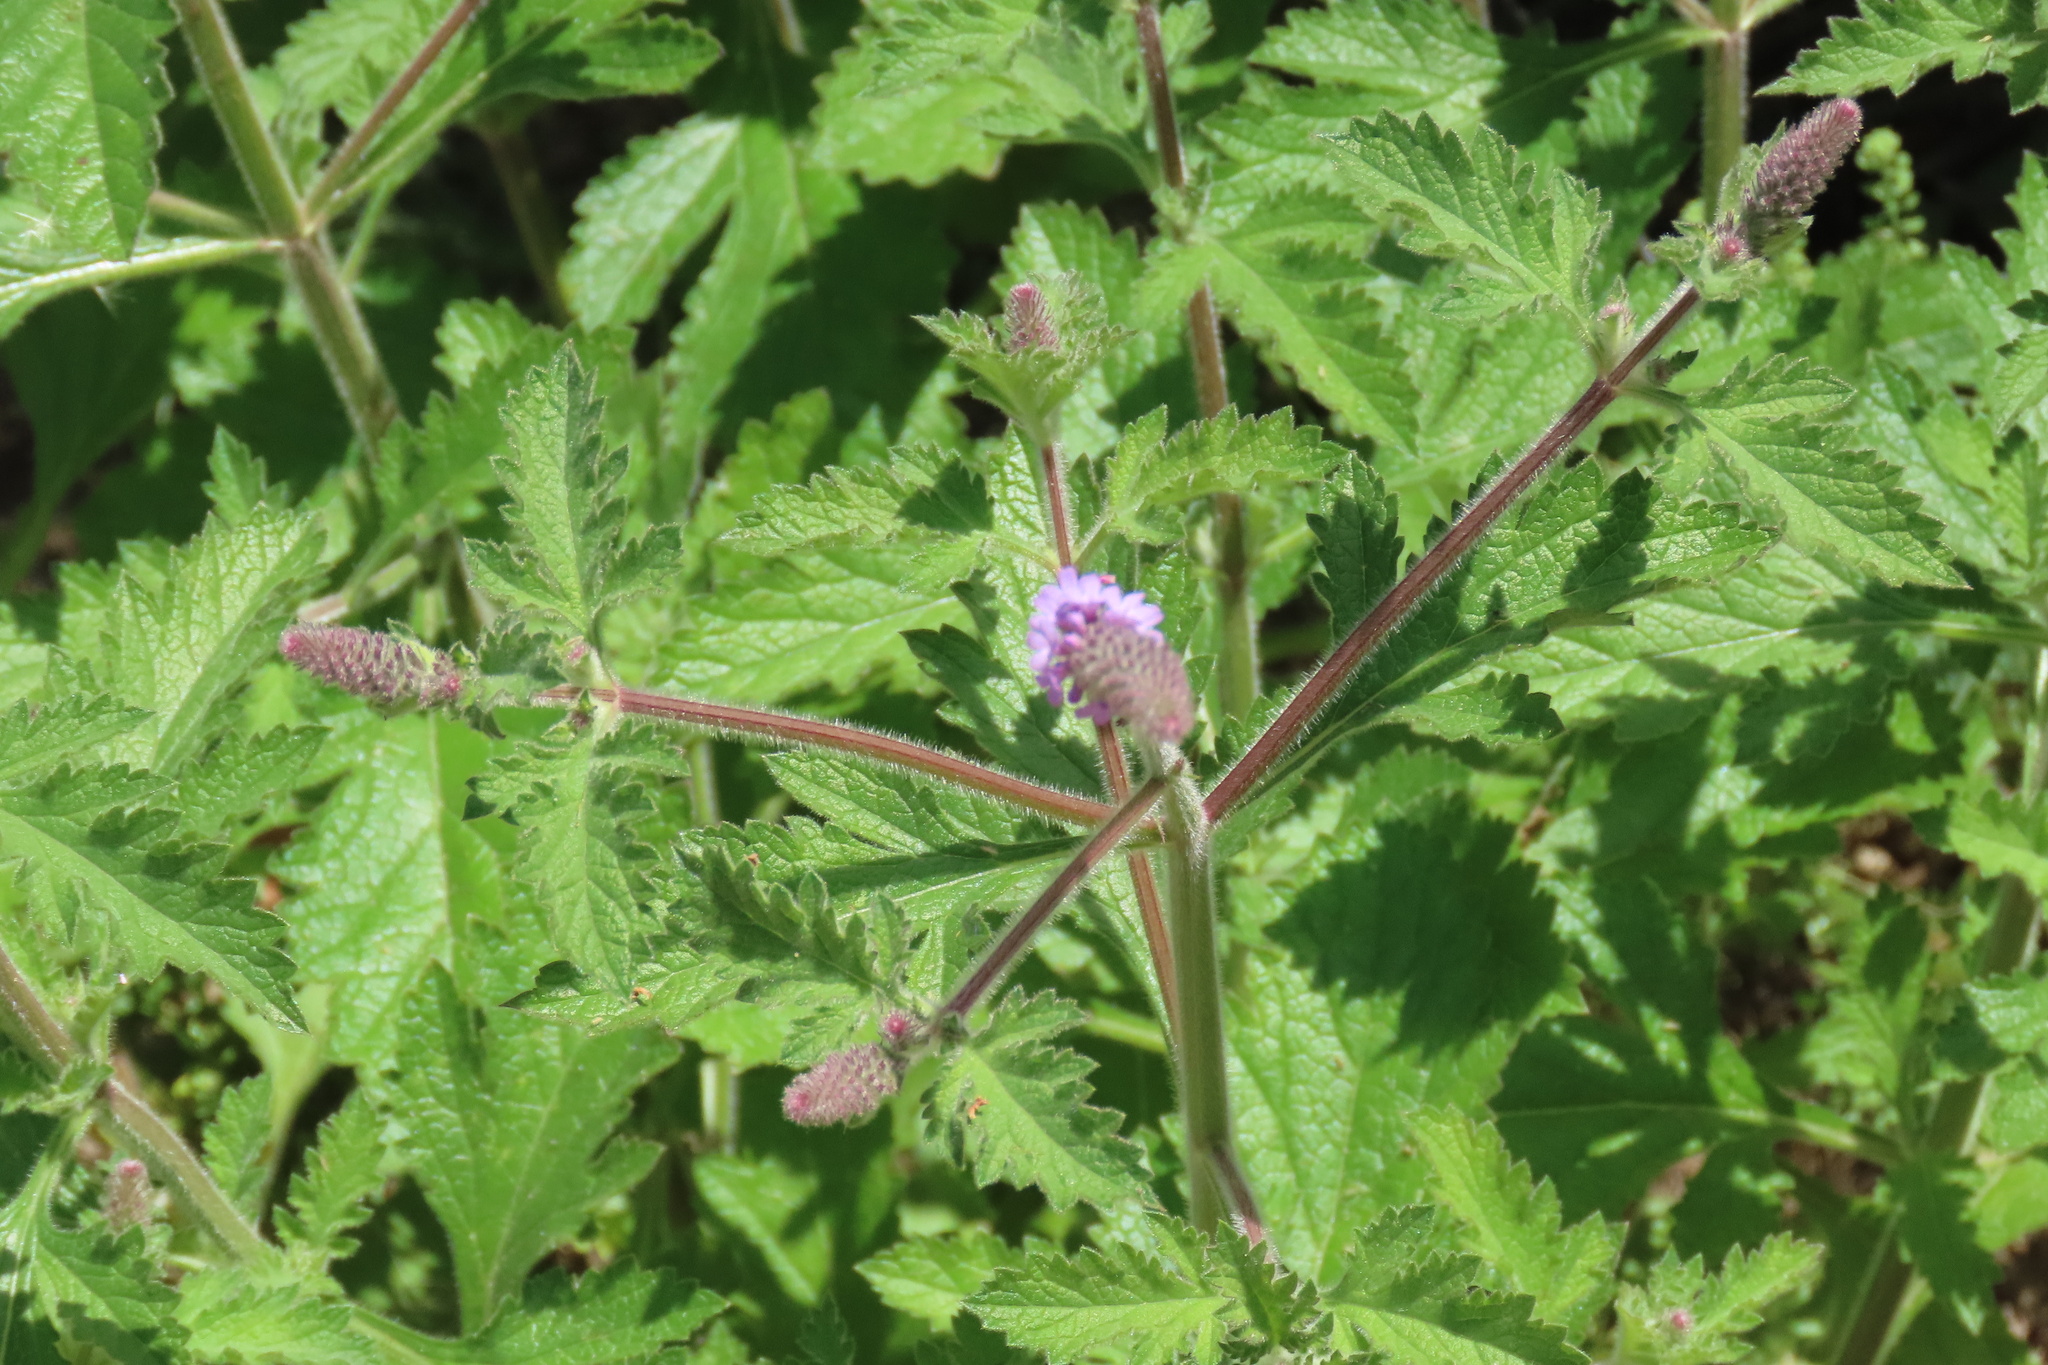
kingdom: Plantae
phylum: Tracheophyta
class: Magnoliopsida
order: Lamiales
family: Verbenaceae
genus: Verbena
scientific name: Verbena lasiostachys
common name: Vervain
